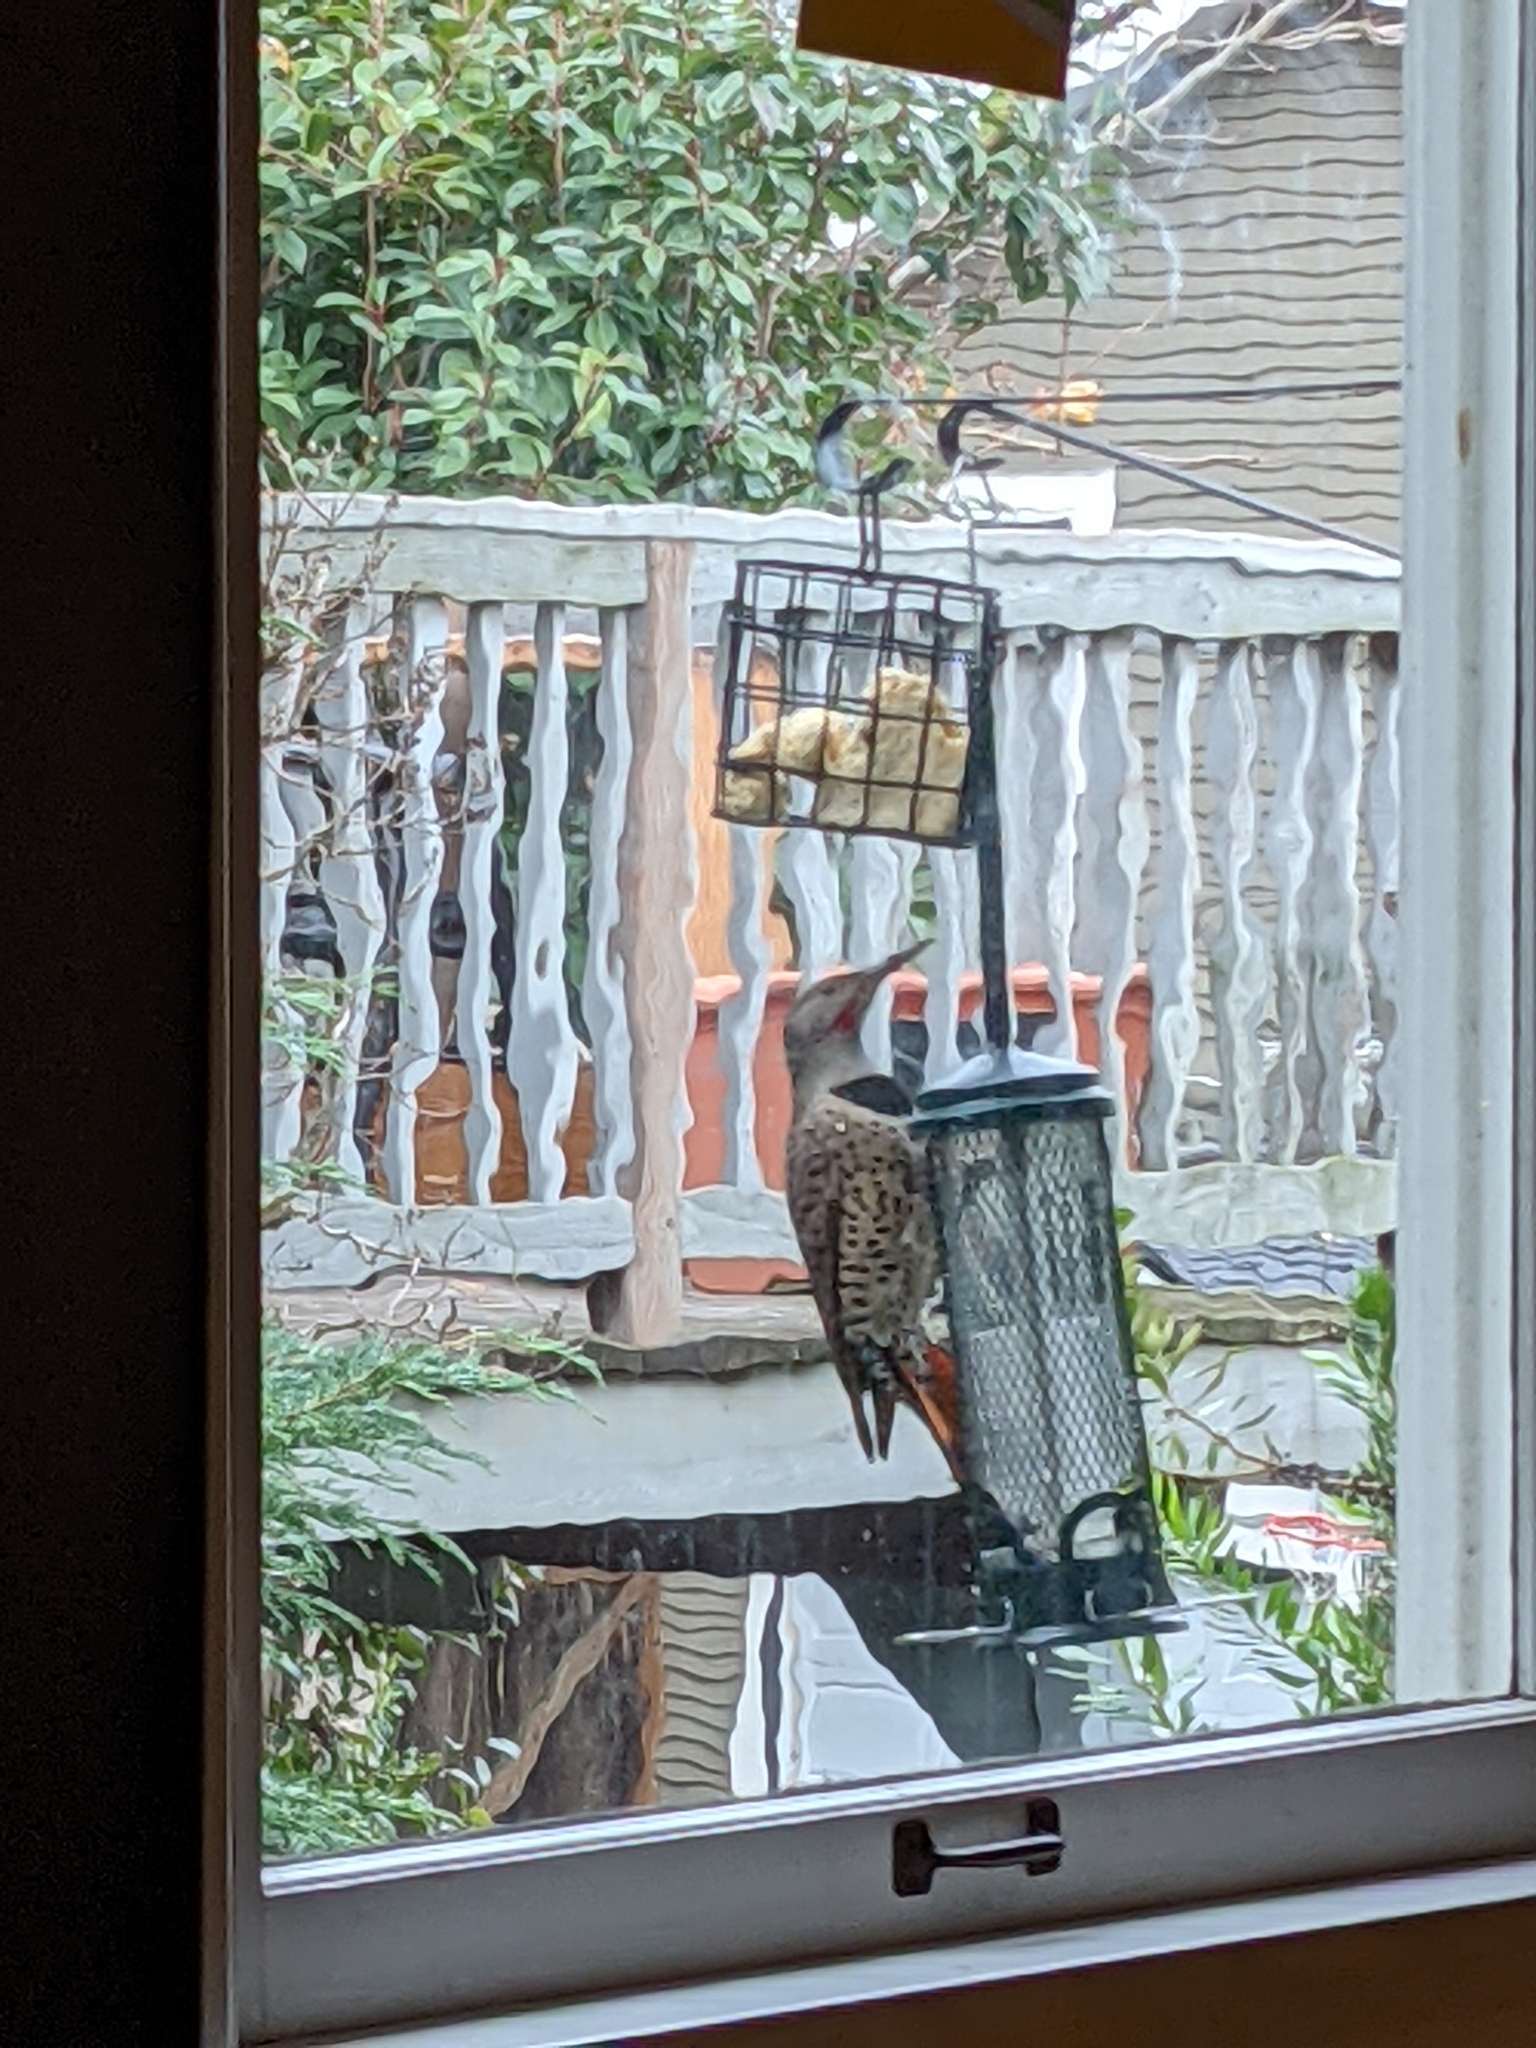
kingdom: Animalia
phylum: Chordata
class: Aves
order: Piciformes
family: Picidae
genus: Colaptes
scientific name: Colaptes auratus
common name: Northern flicker
